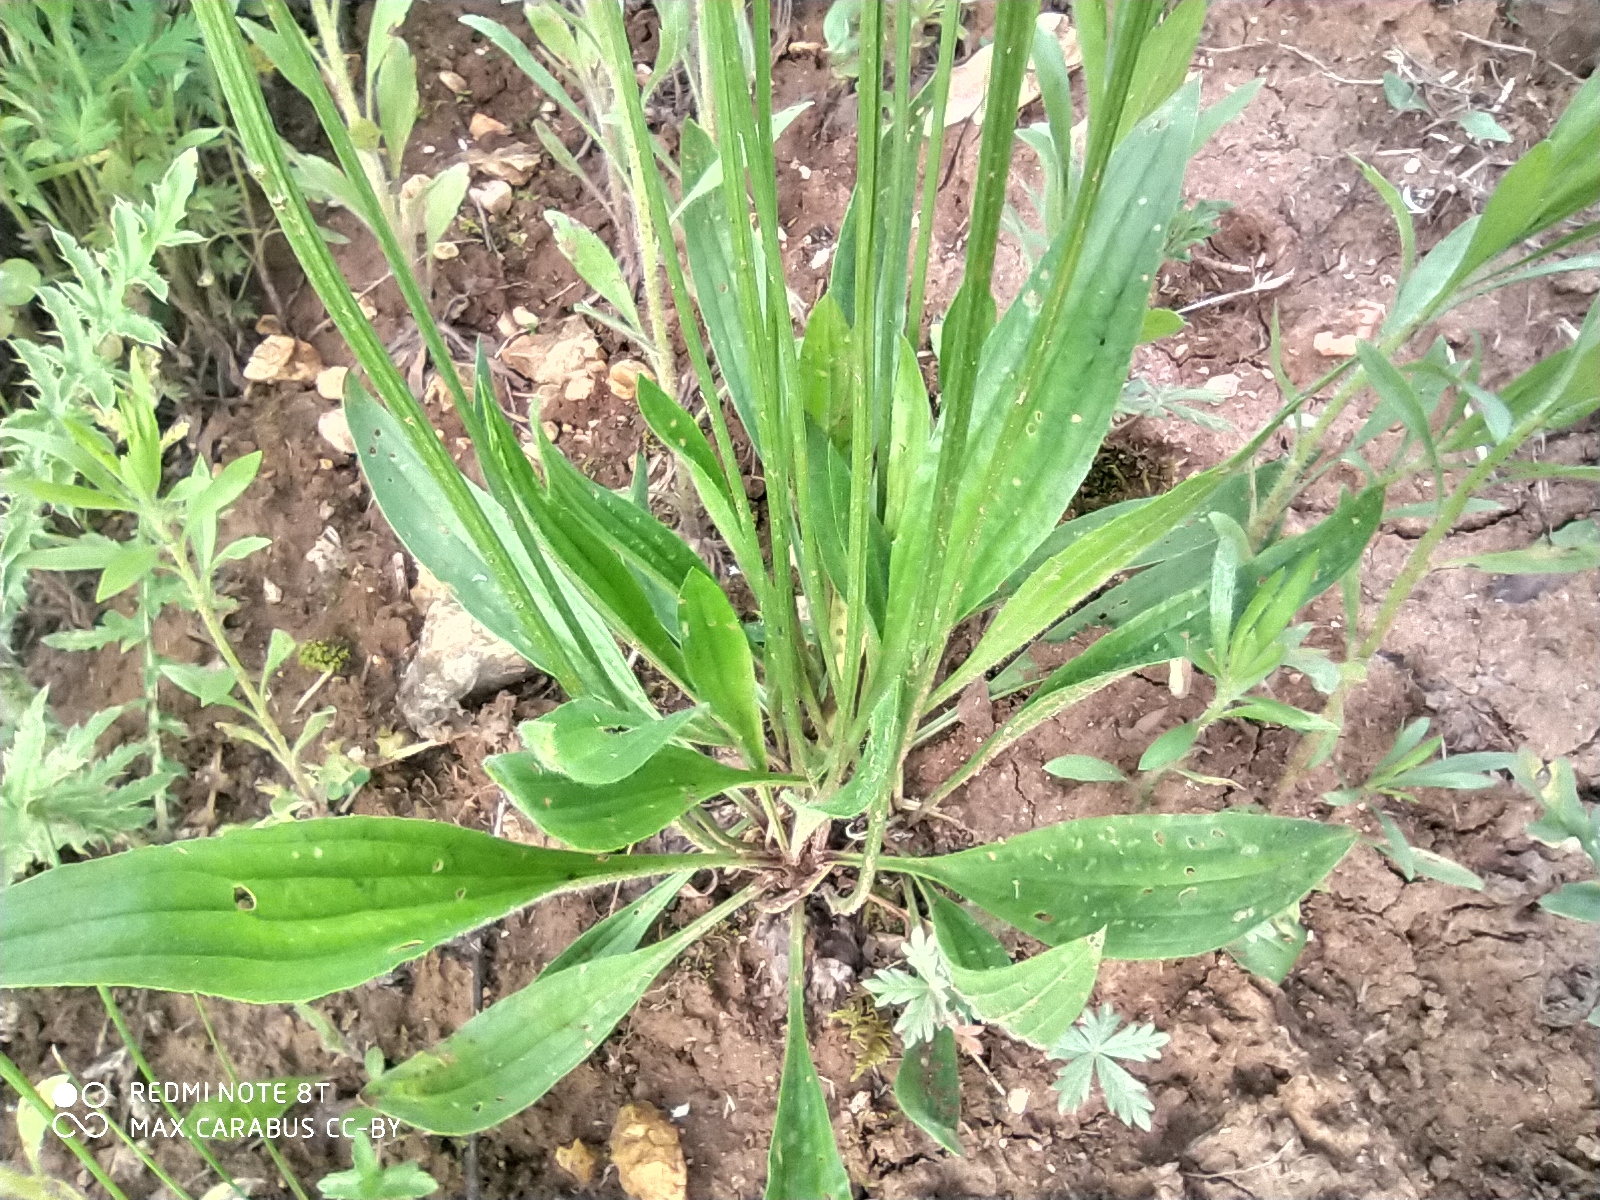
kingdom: Plantae
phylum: Tracheophyta
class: Magnoliopsida
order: Lamiales
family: Plantaginaceae
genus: Plantago
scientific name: Plantago lanceolata
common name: Ribwort plantain
